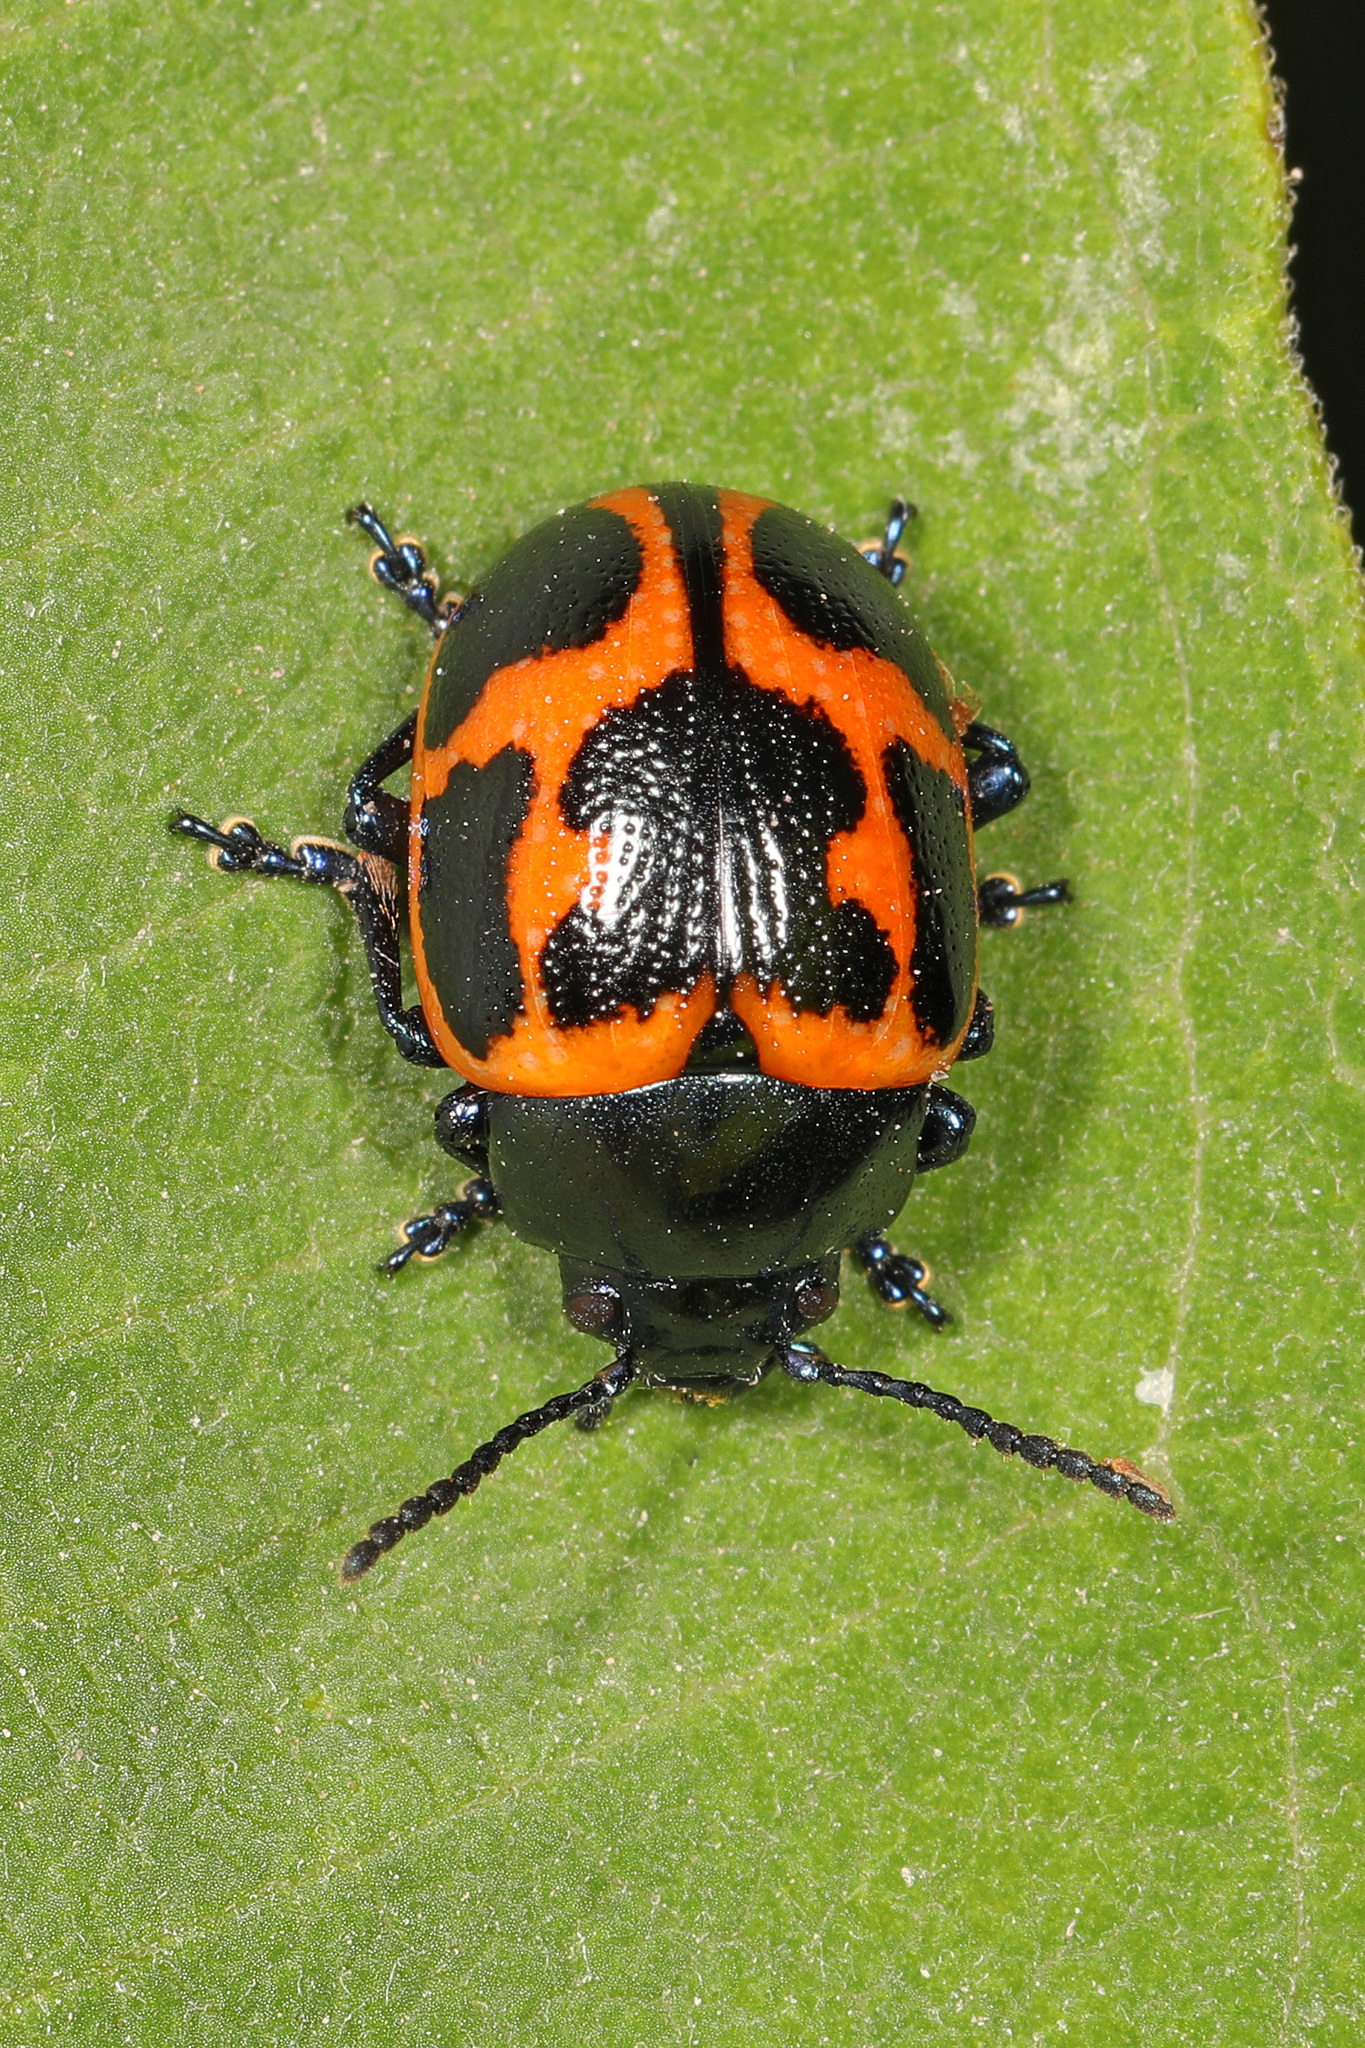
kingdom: Animalia
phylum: Arthropoda
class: Insecta
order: Coleoptera
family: Chrysomelidae
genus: Labidomera
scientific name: Labidomera clivicollis
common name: Swamp milkweed leaf beetle
